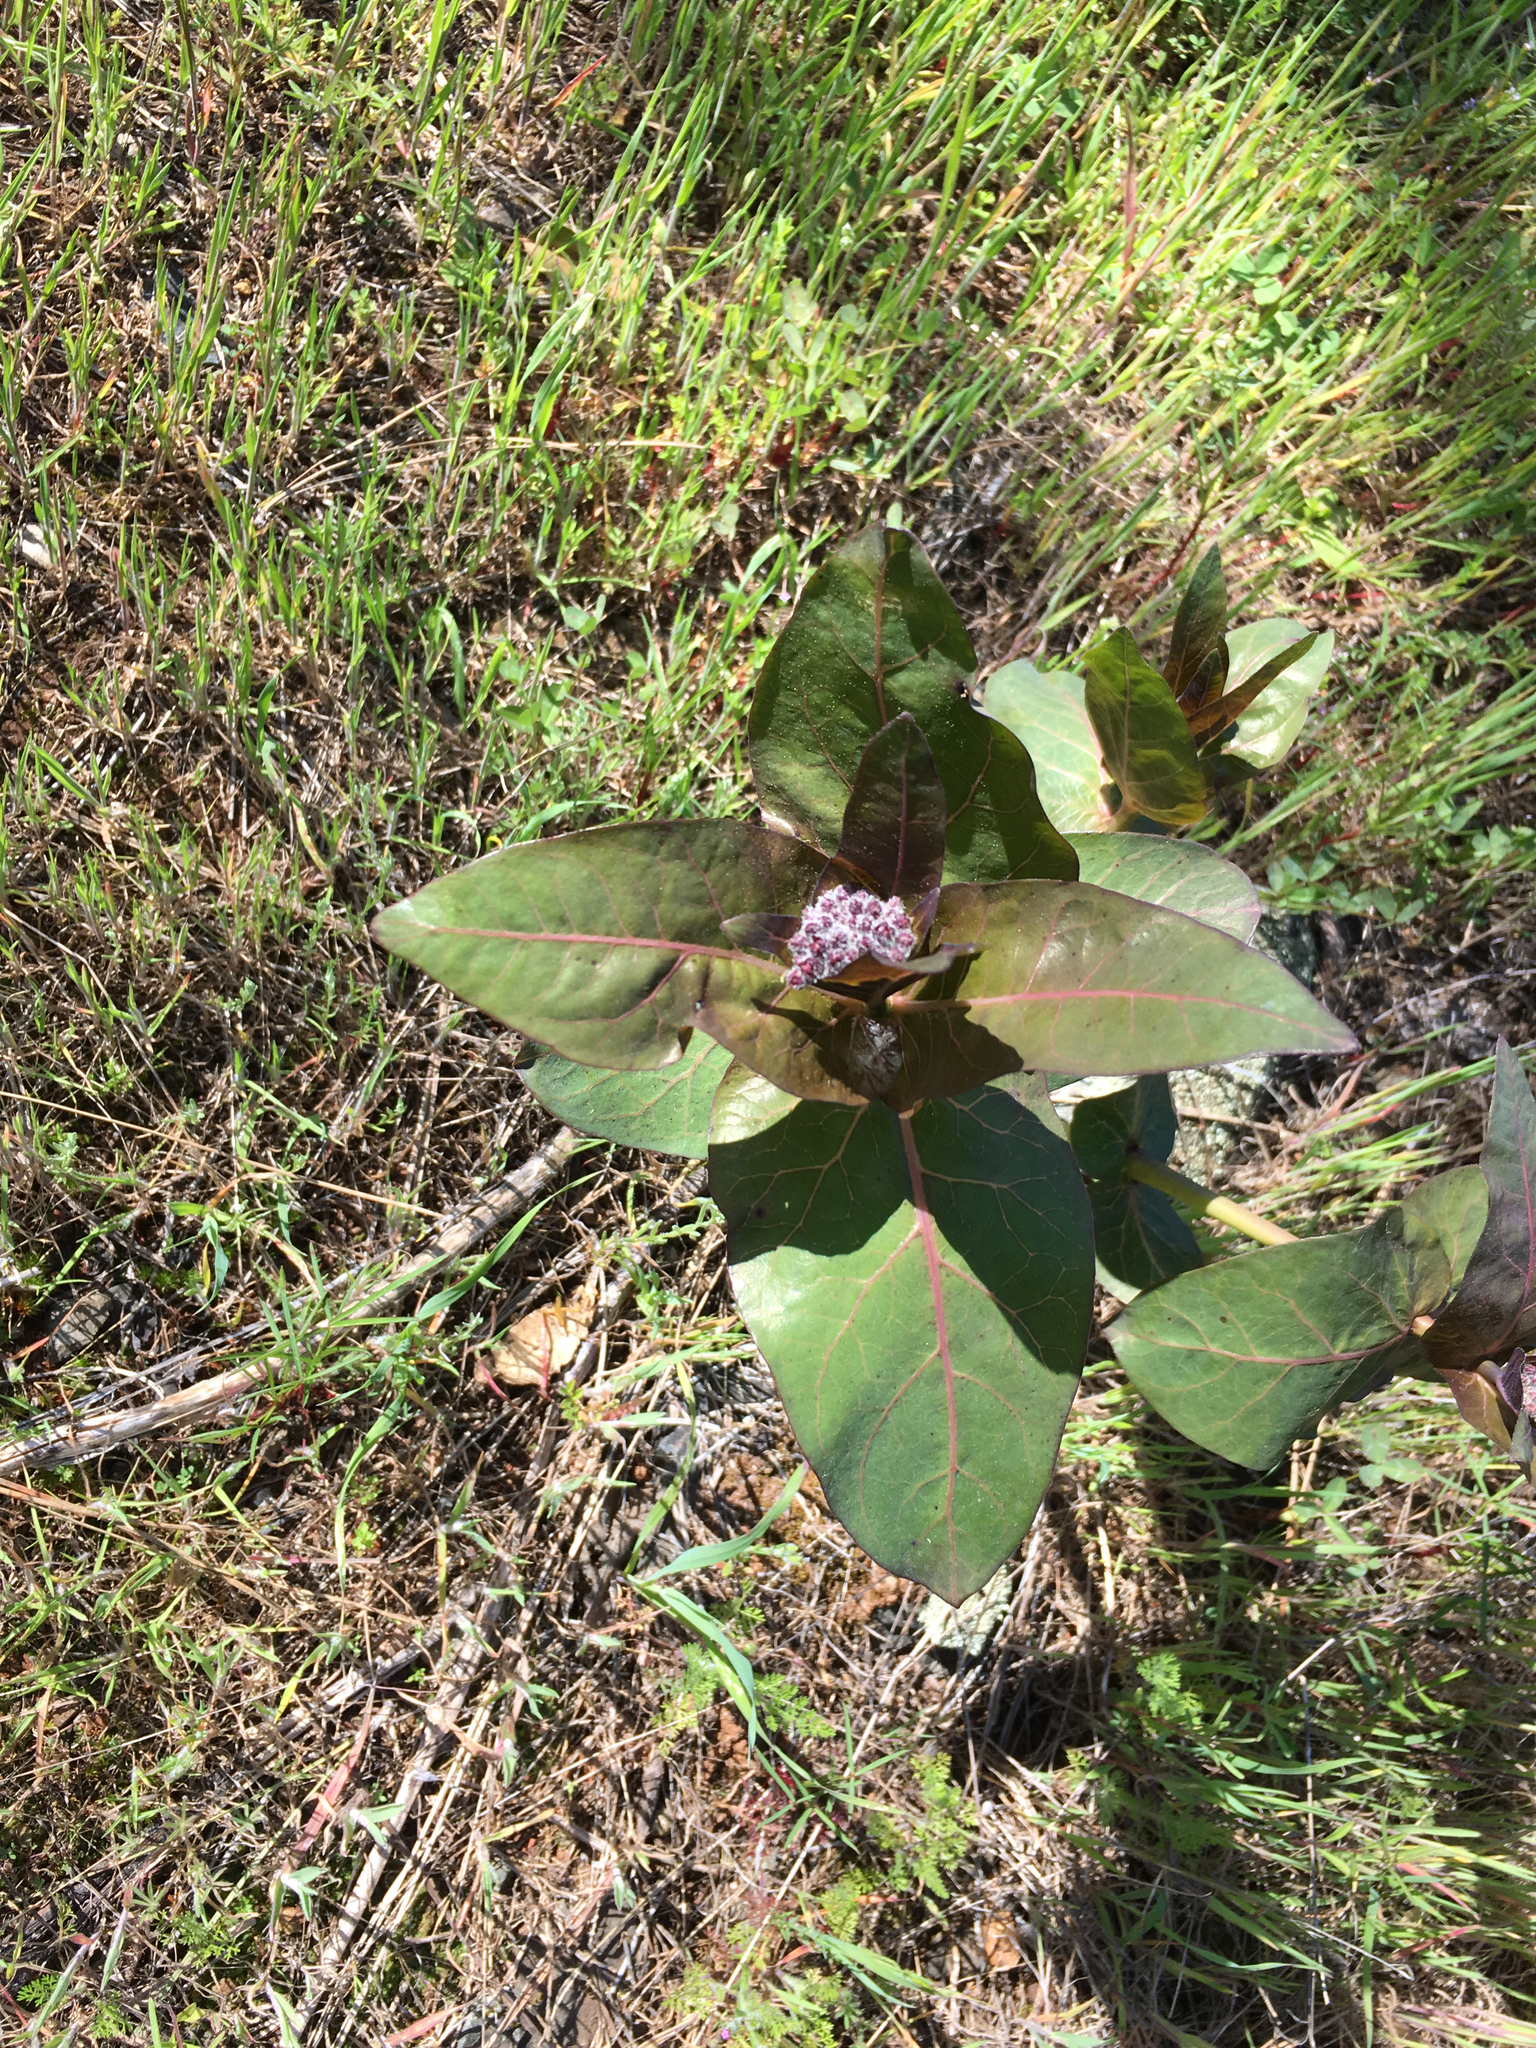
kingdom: Plantae
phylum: Tracheophyta
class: Magnoliopsida
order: Gentianales
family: Apocynaceae
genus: Asclepias
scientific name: Asclepias cordifolia
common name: Purple milkweed
